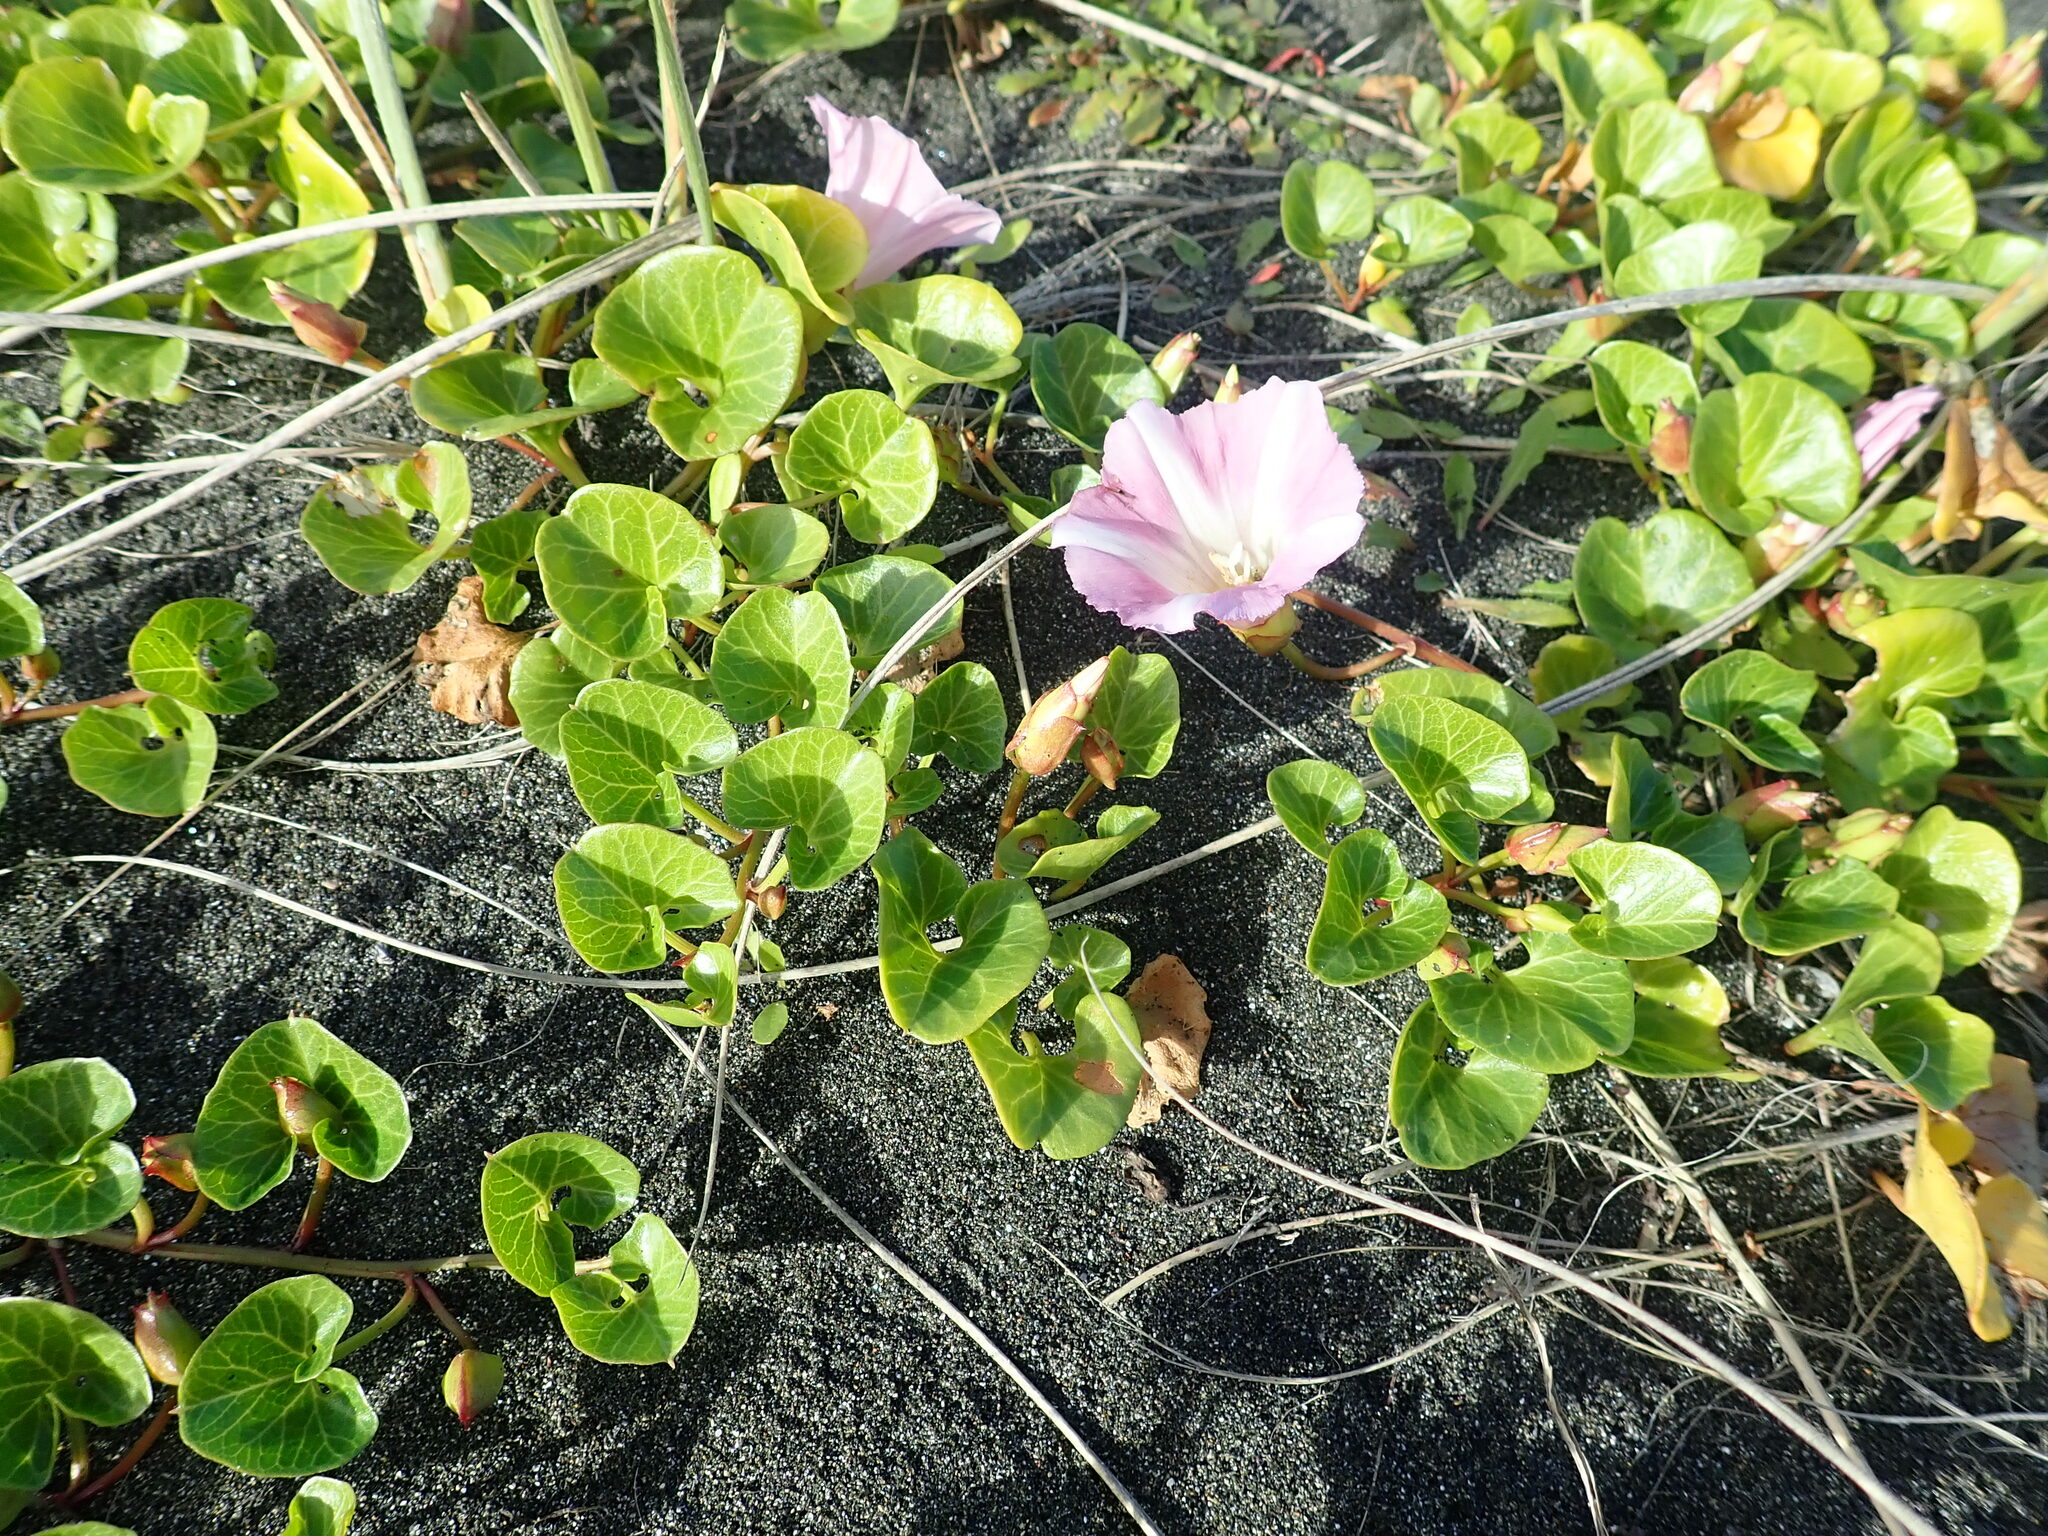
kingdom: Plantae
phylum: Tracheophyta
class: Magnoliopsida
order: Solanales
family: Convolvulaceae
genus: Calystegia
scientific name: Calystegia soldanella
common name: Sea bindweed
